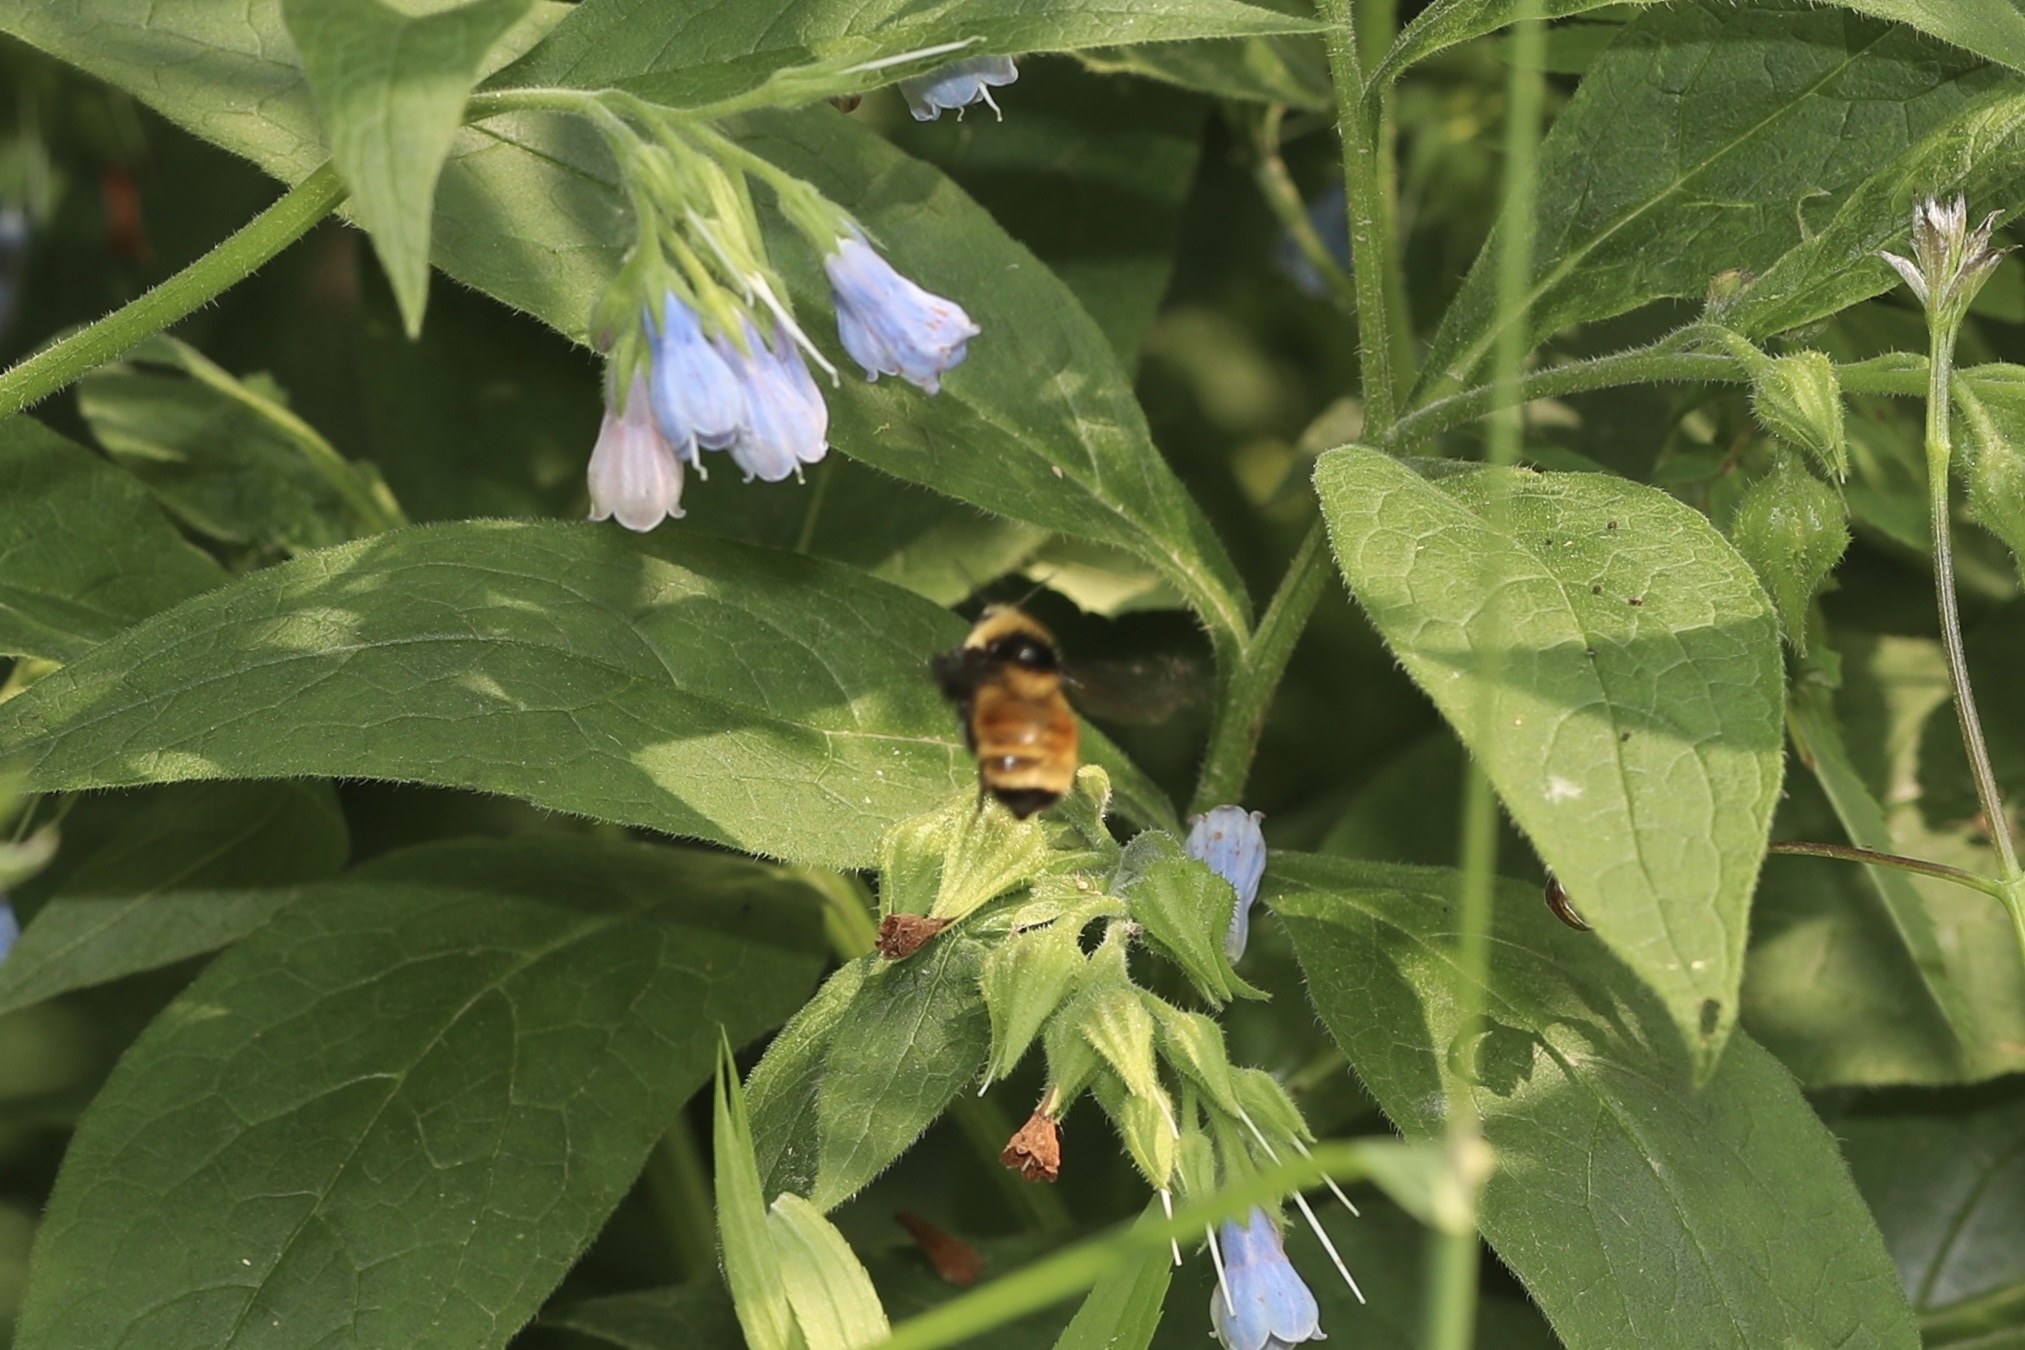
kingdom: Animalia
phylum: Arthropoda
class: Insecta
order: Hymenoptera
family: Apidae
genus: Bombus
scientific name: Bombus borealis
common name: Northern amber bumble bee
